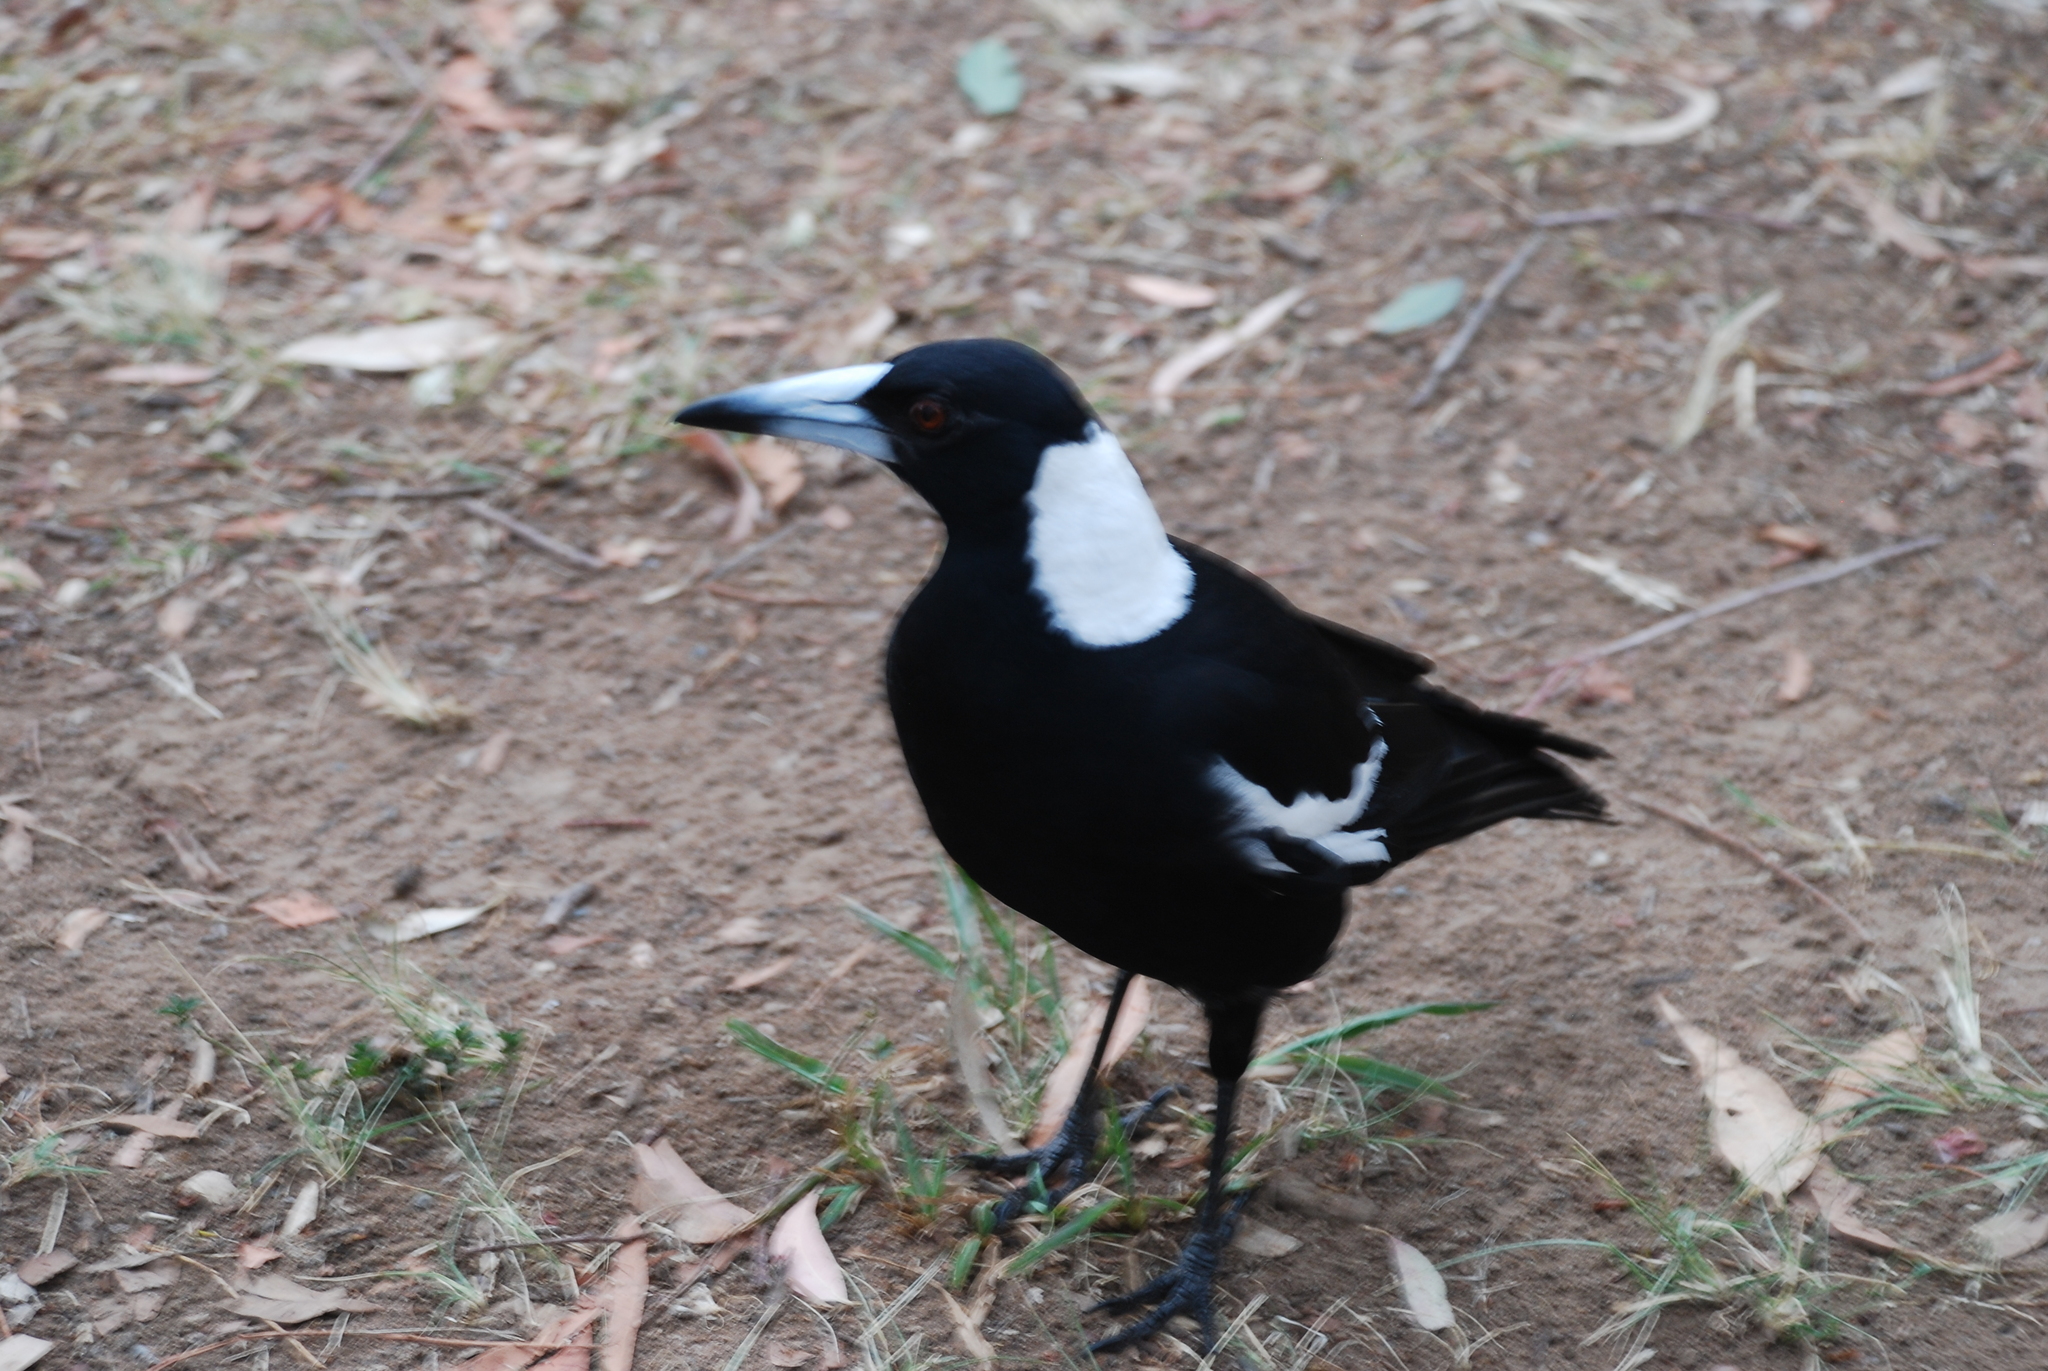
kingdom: Animalia
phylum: Chordata
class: Aves
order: Passeriformes
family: Cracticidae
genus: Gymnorhina
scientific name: Gymnorhina tibicen
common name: Australian magpie
